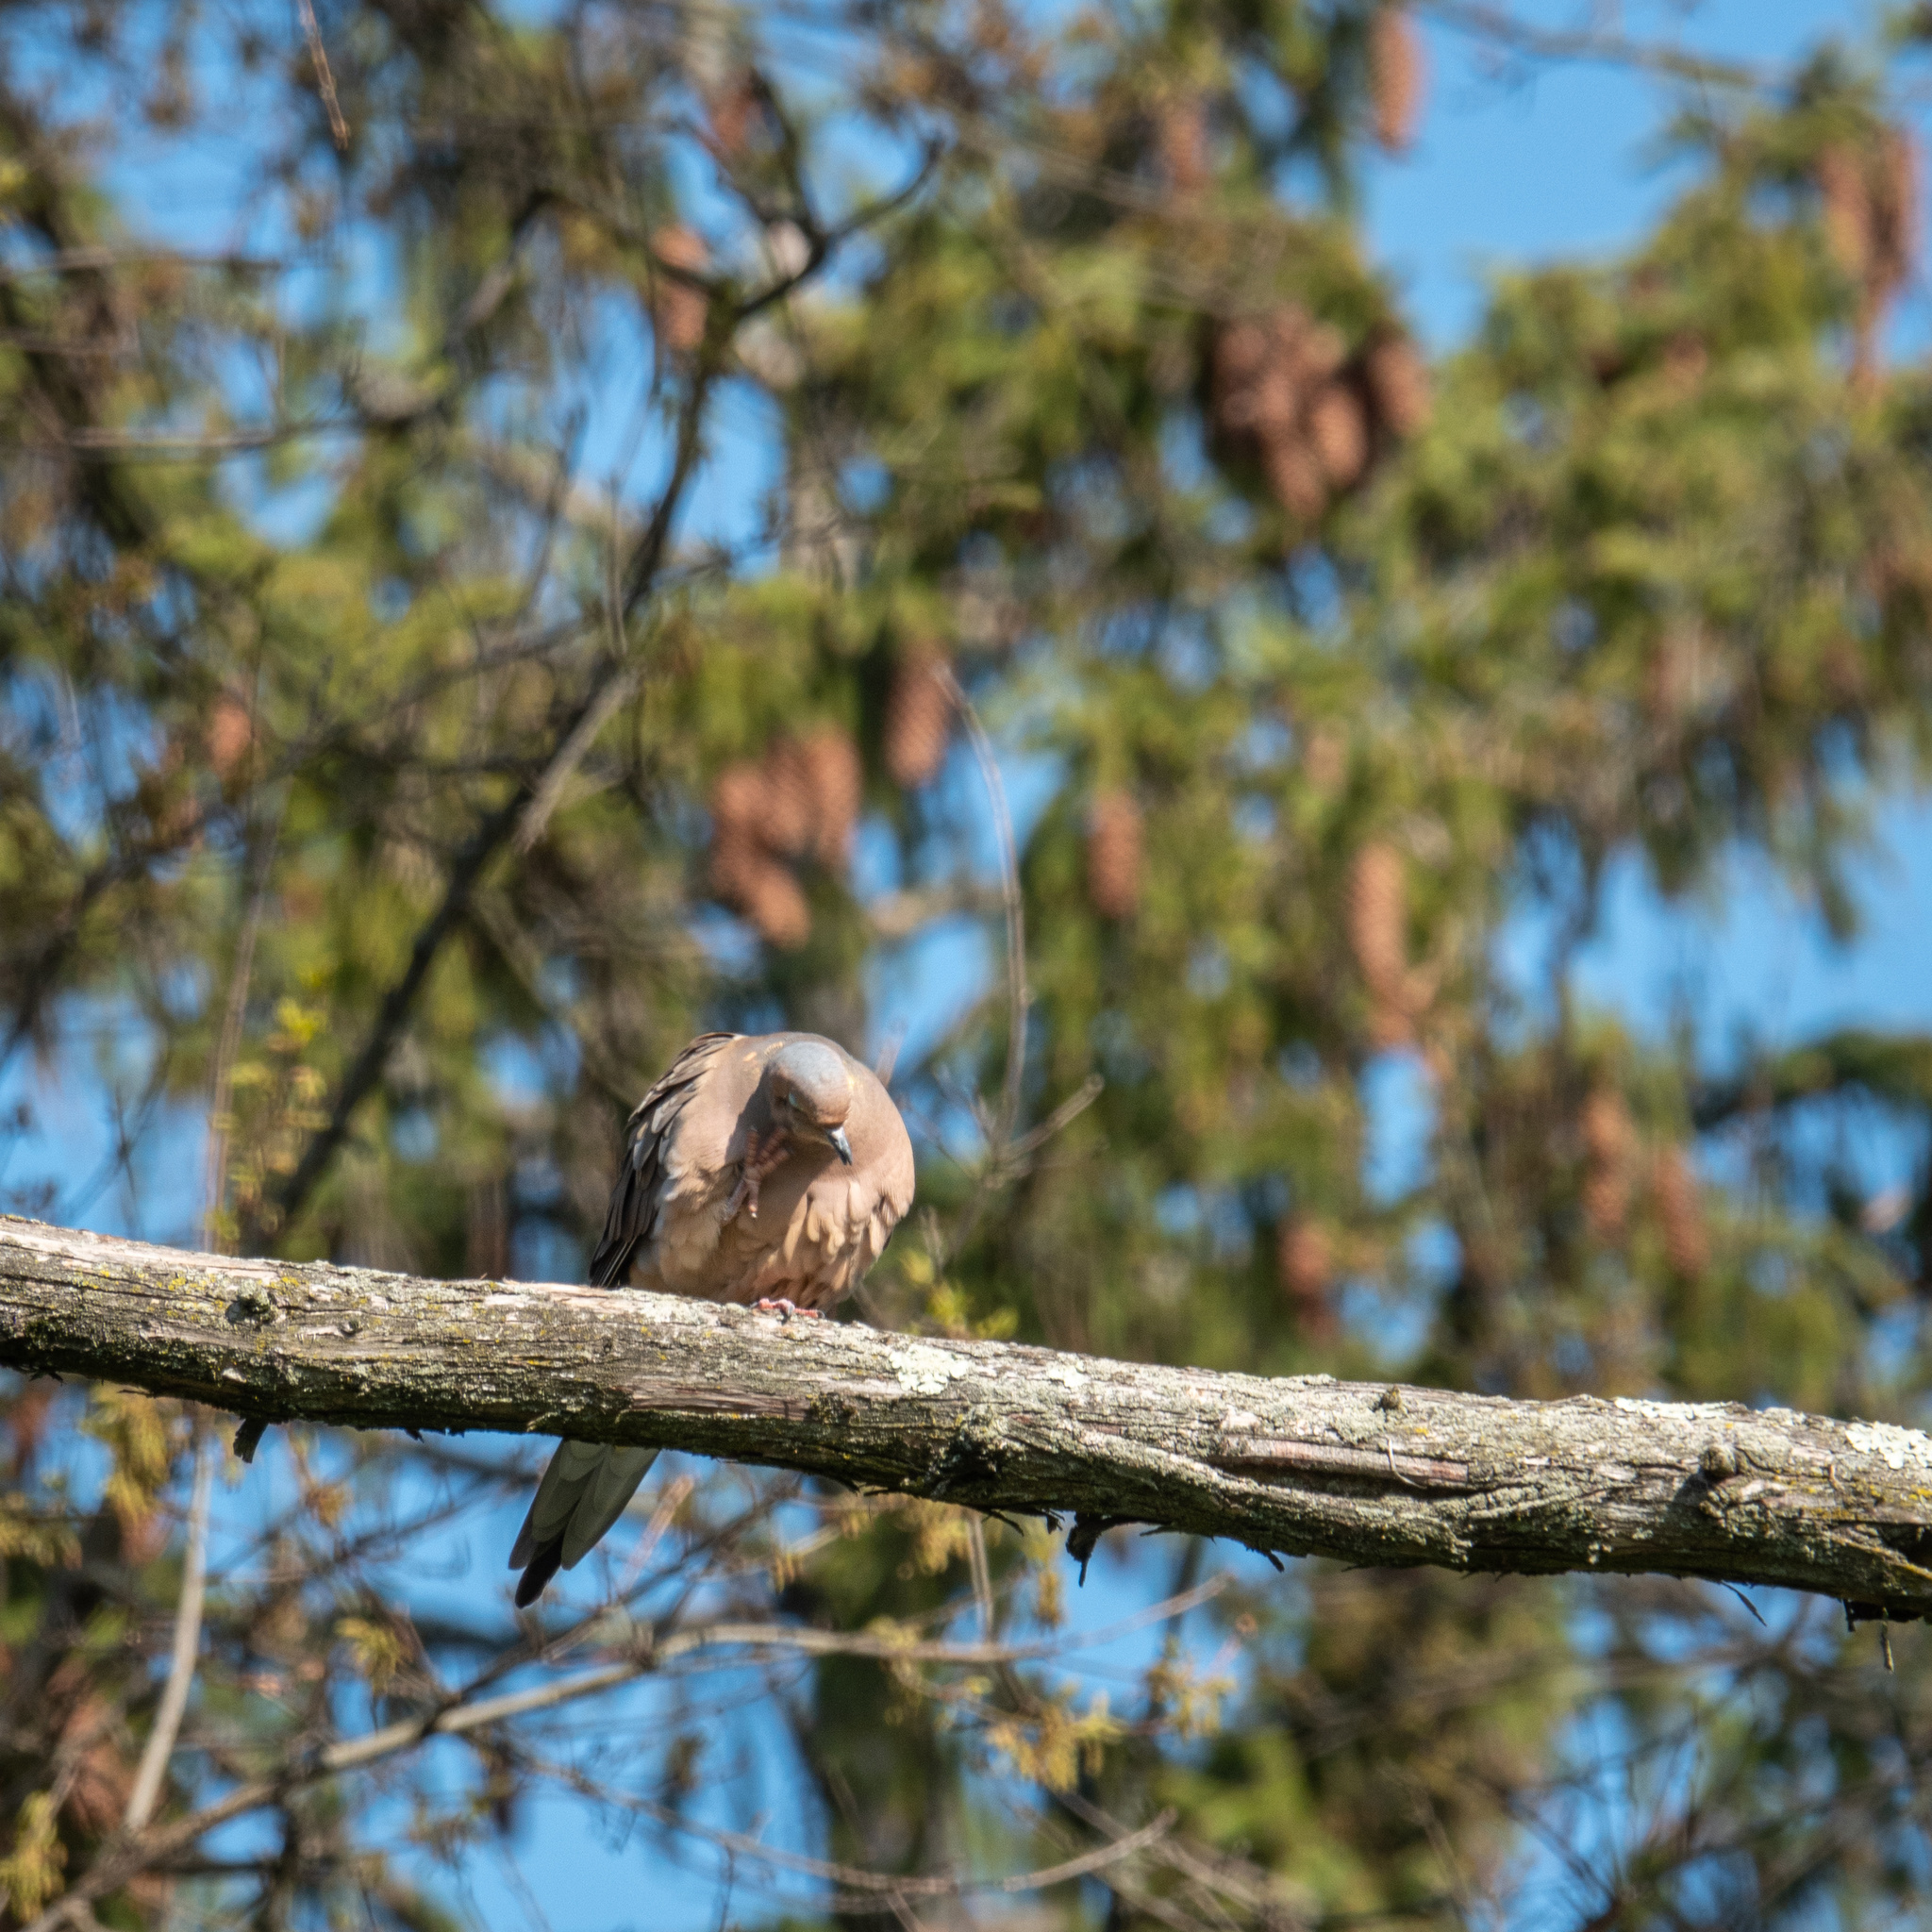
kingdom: Animalia
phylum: Chordata
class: Aves
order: Columbiformes
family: Columbidae
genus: Zenaida
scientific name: Zenaida macroura
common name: Mourning dove
